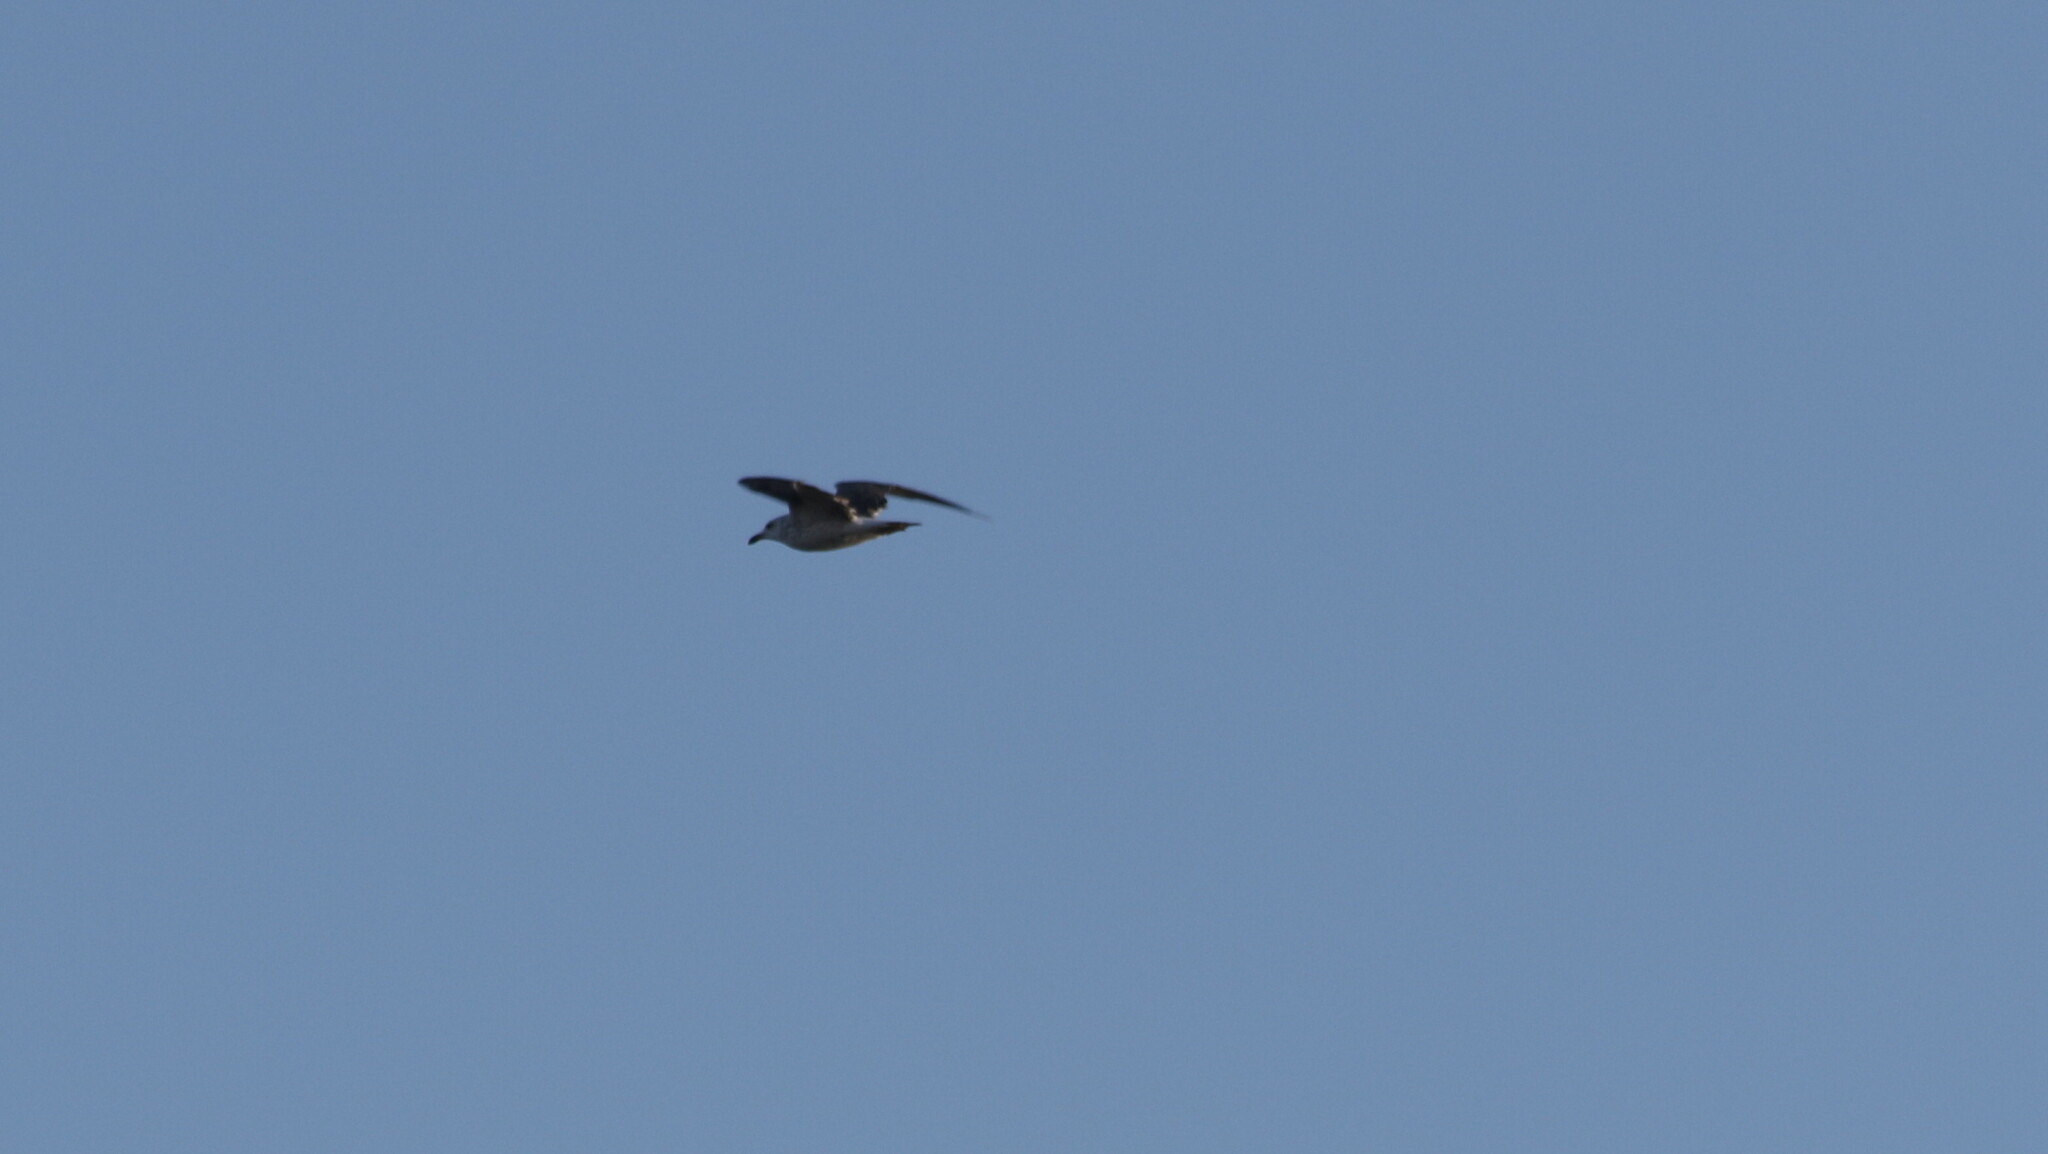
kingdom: Animalia
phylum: Chordata
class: Aves
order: Charadriiformes
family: Laridae
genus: Larus
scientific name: Larus fuscus
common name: Lesser black-backed gull
